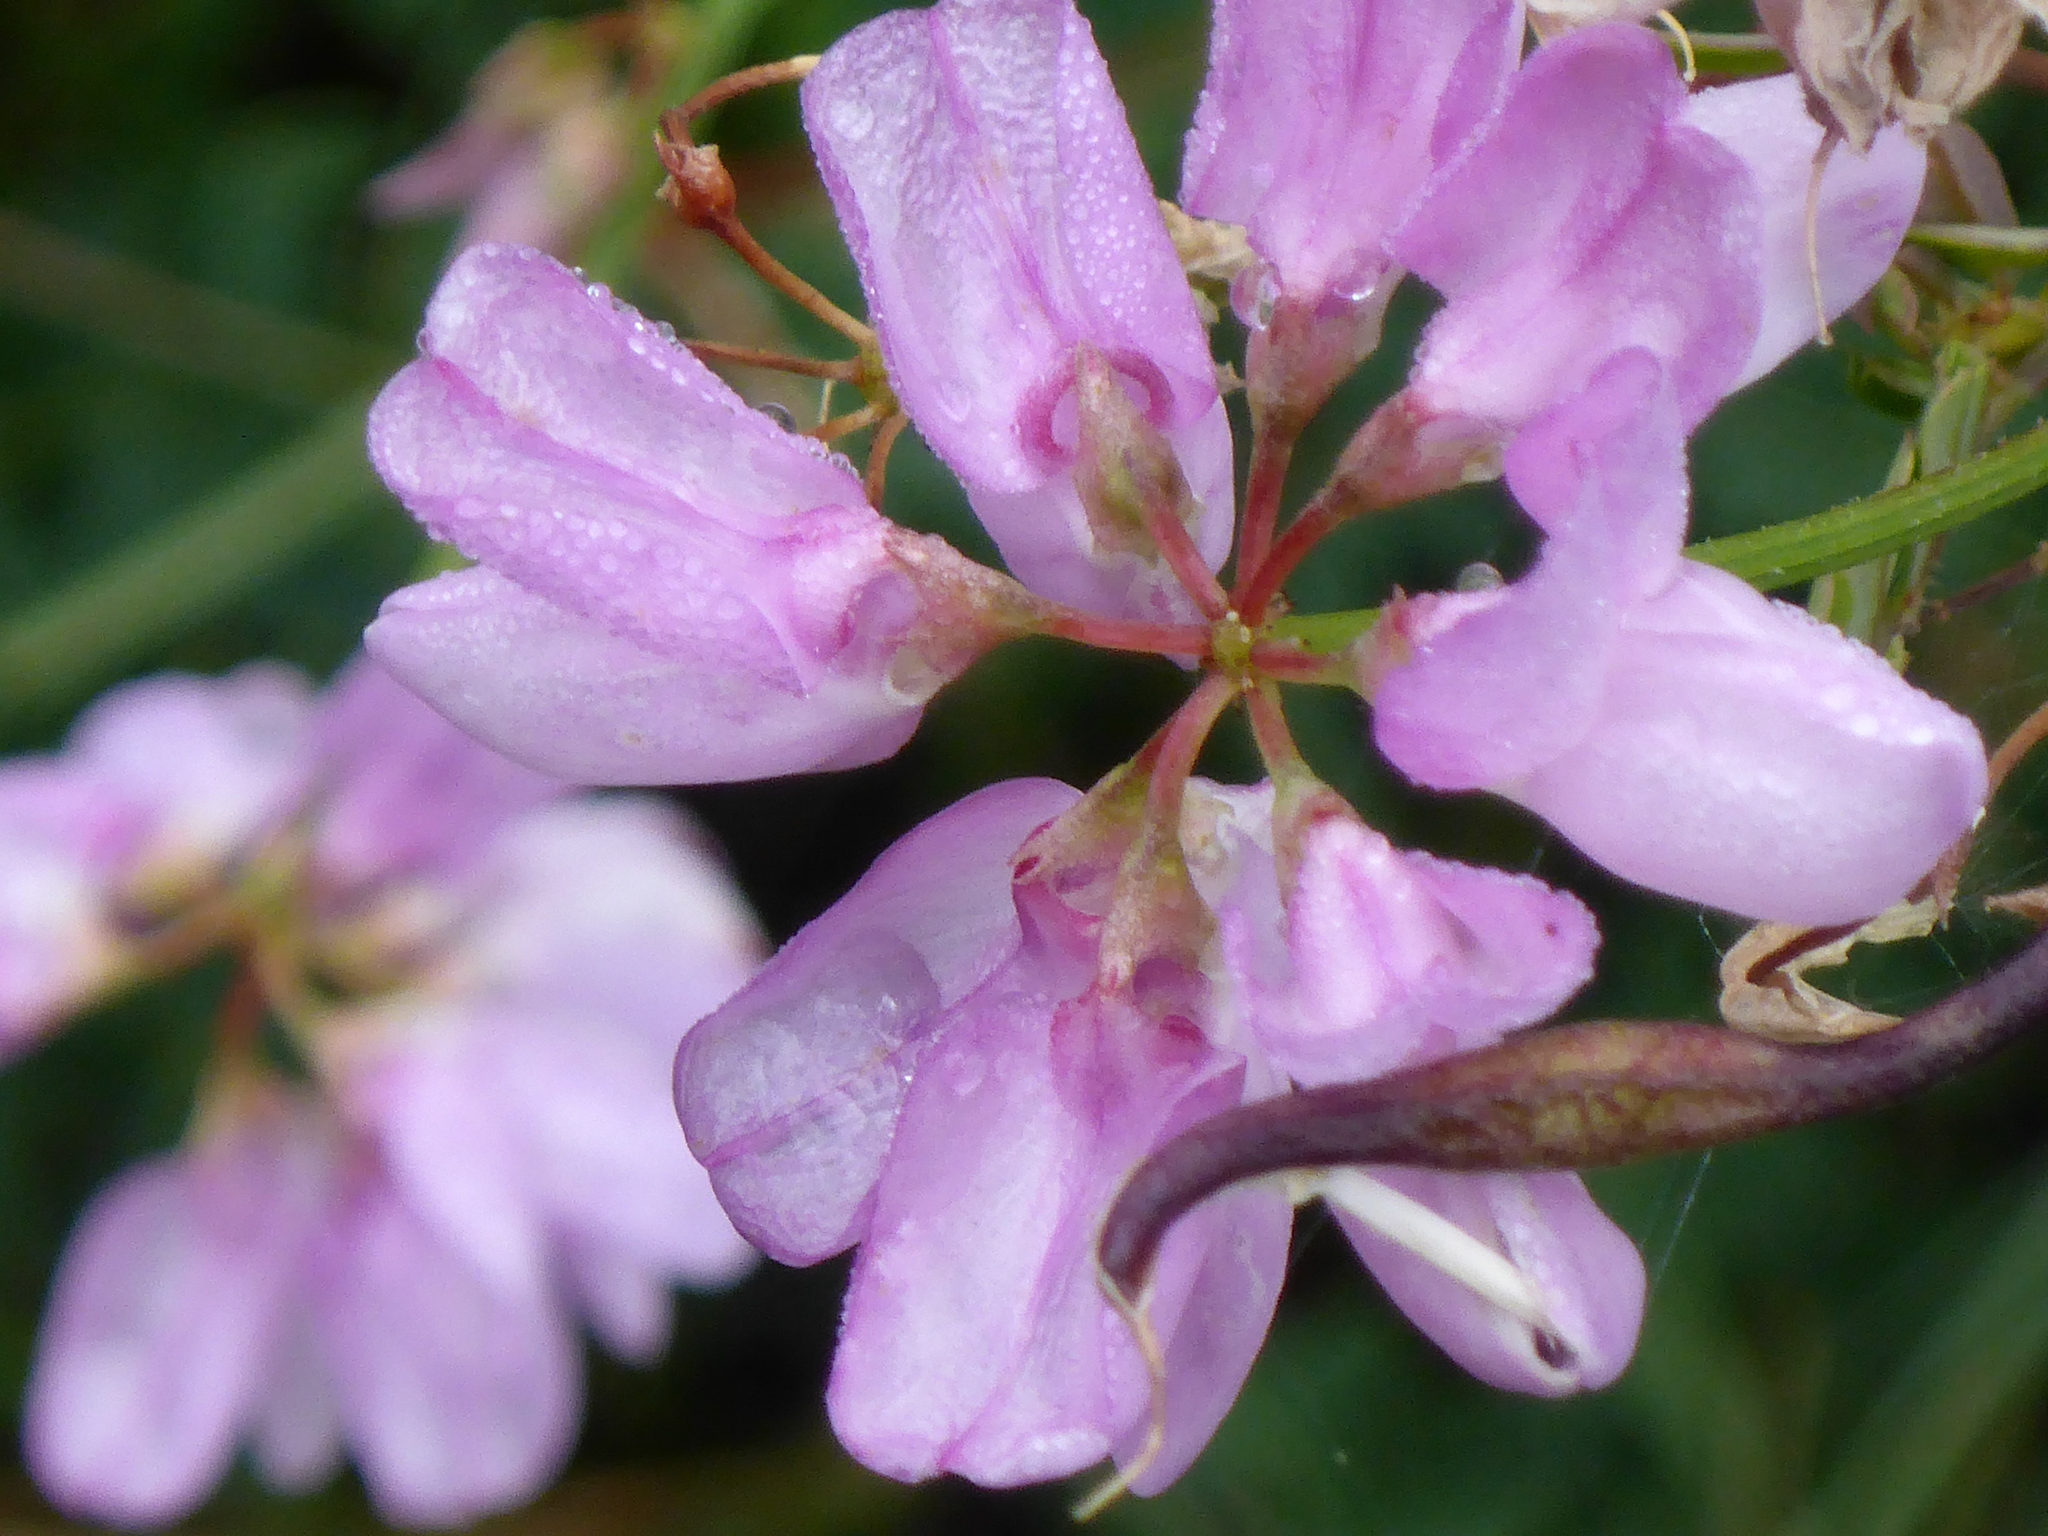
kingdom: Plantae
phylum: Tracheophyta
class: Magnoliopsida
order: Fabales
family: Fabaceae
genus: Coronilla
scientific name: Coronilla varia
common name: Crownvetch
